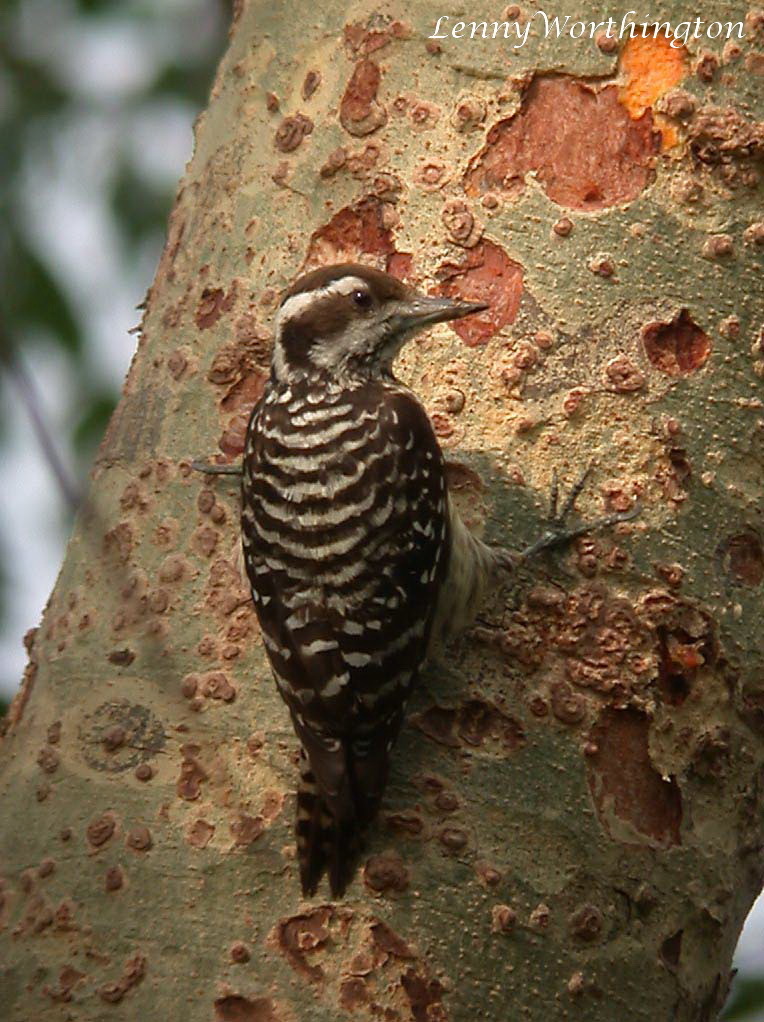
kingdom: Animalia
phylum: Chordata
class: Aves
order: Piciformes
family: Picidae
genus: Yungipicus
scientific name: Yungipicus maculatus
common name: Philippine pygmy woodpecker
